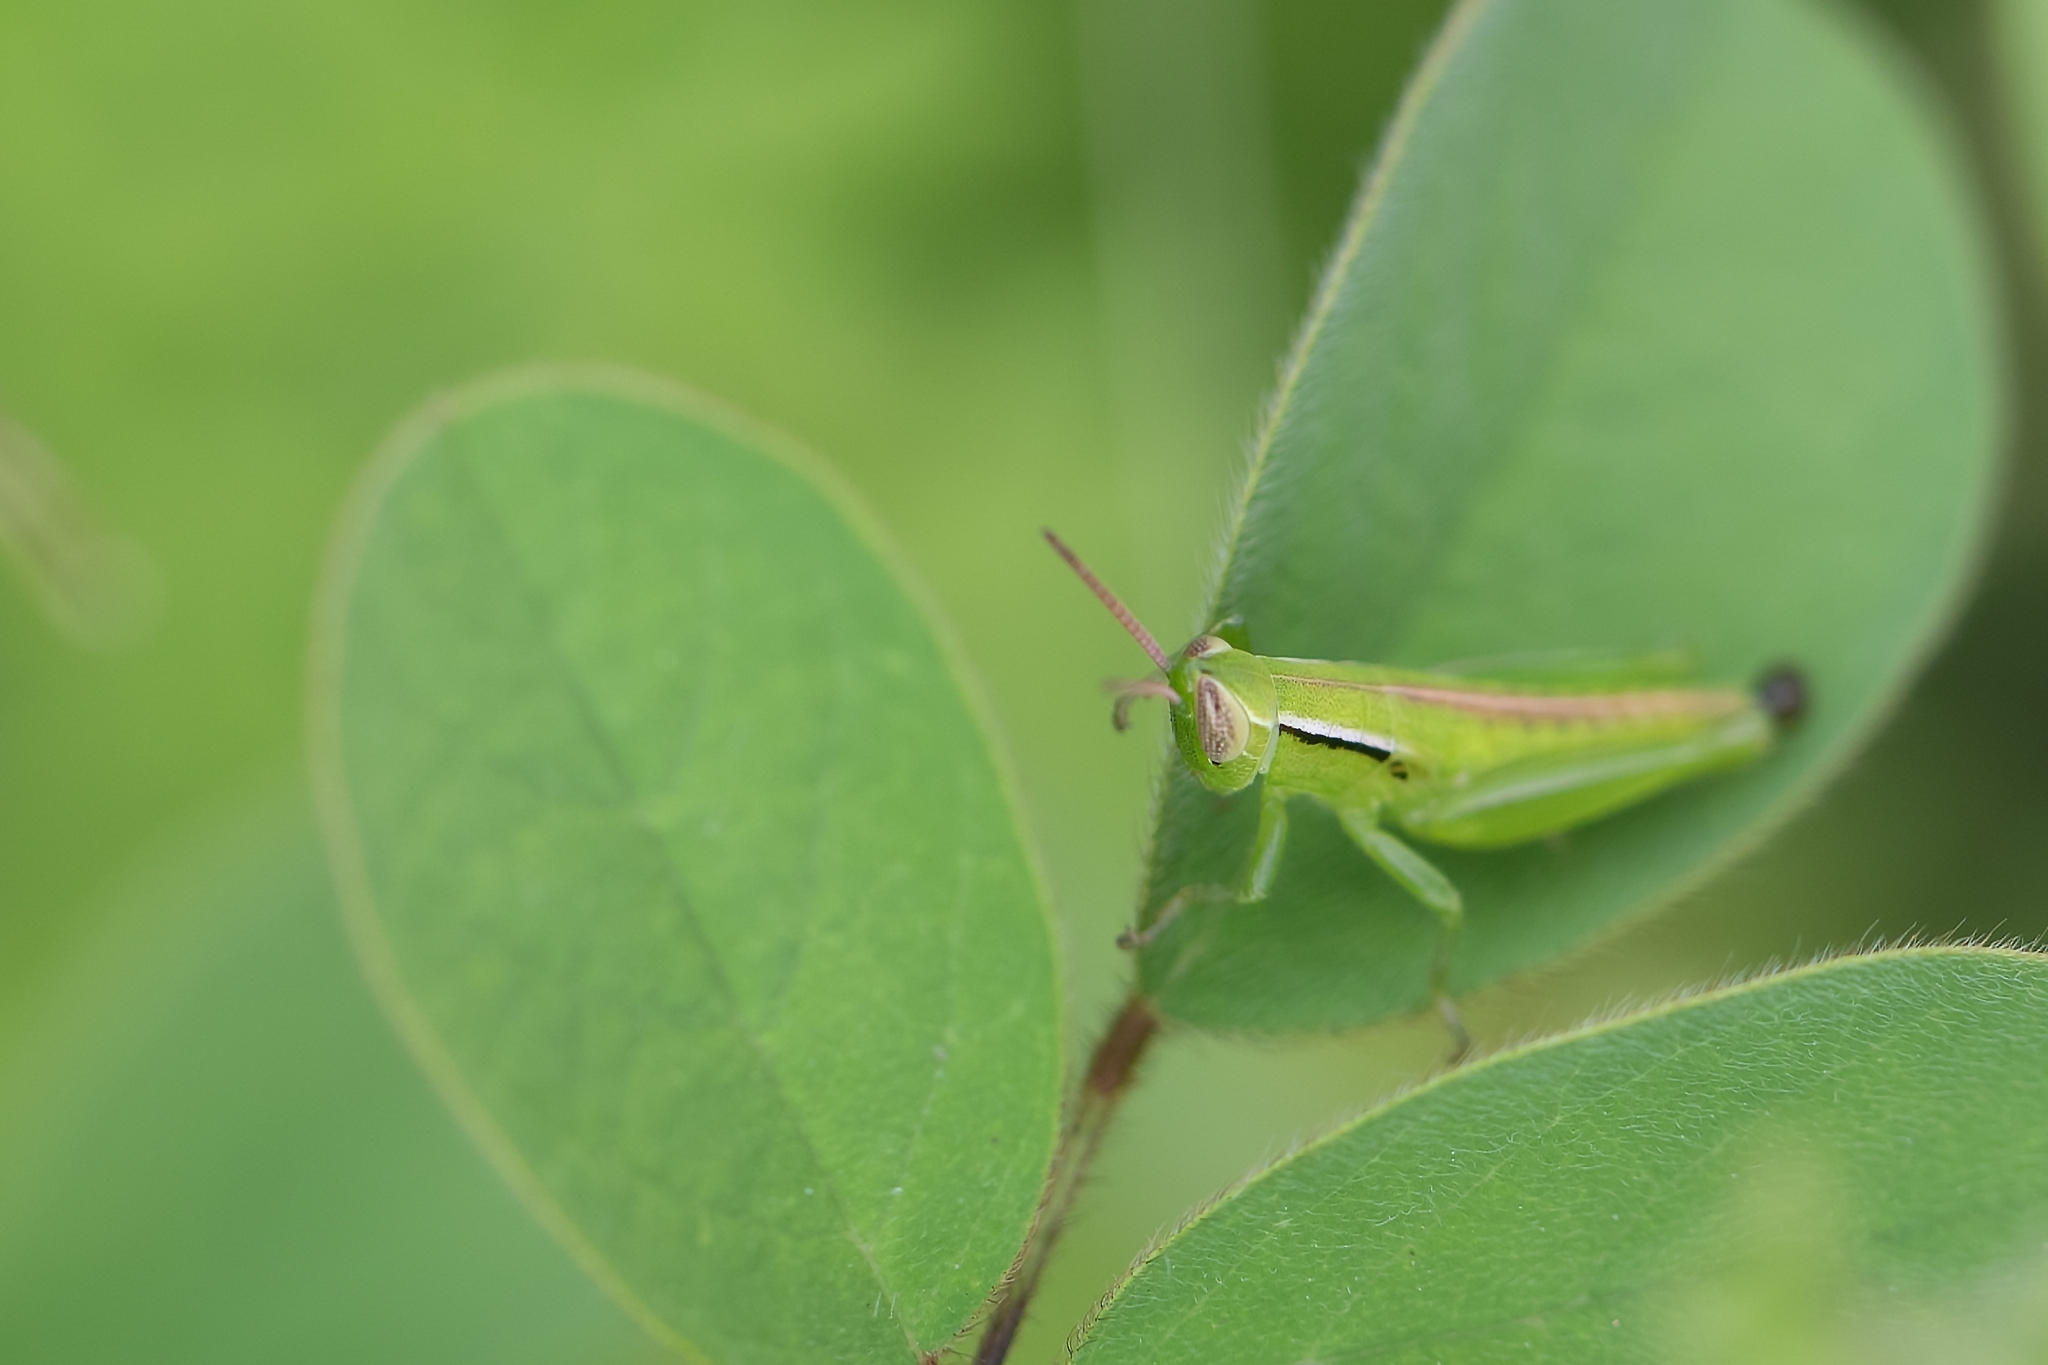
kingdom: Animalia
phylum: Arthropoda
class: Insecta
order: Orthoptera
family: Acrididae
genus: Aptenopedes
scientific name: Aptenopedes sphenarioides
